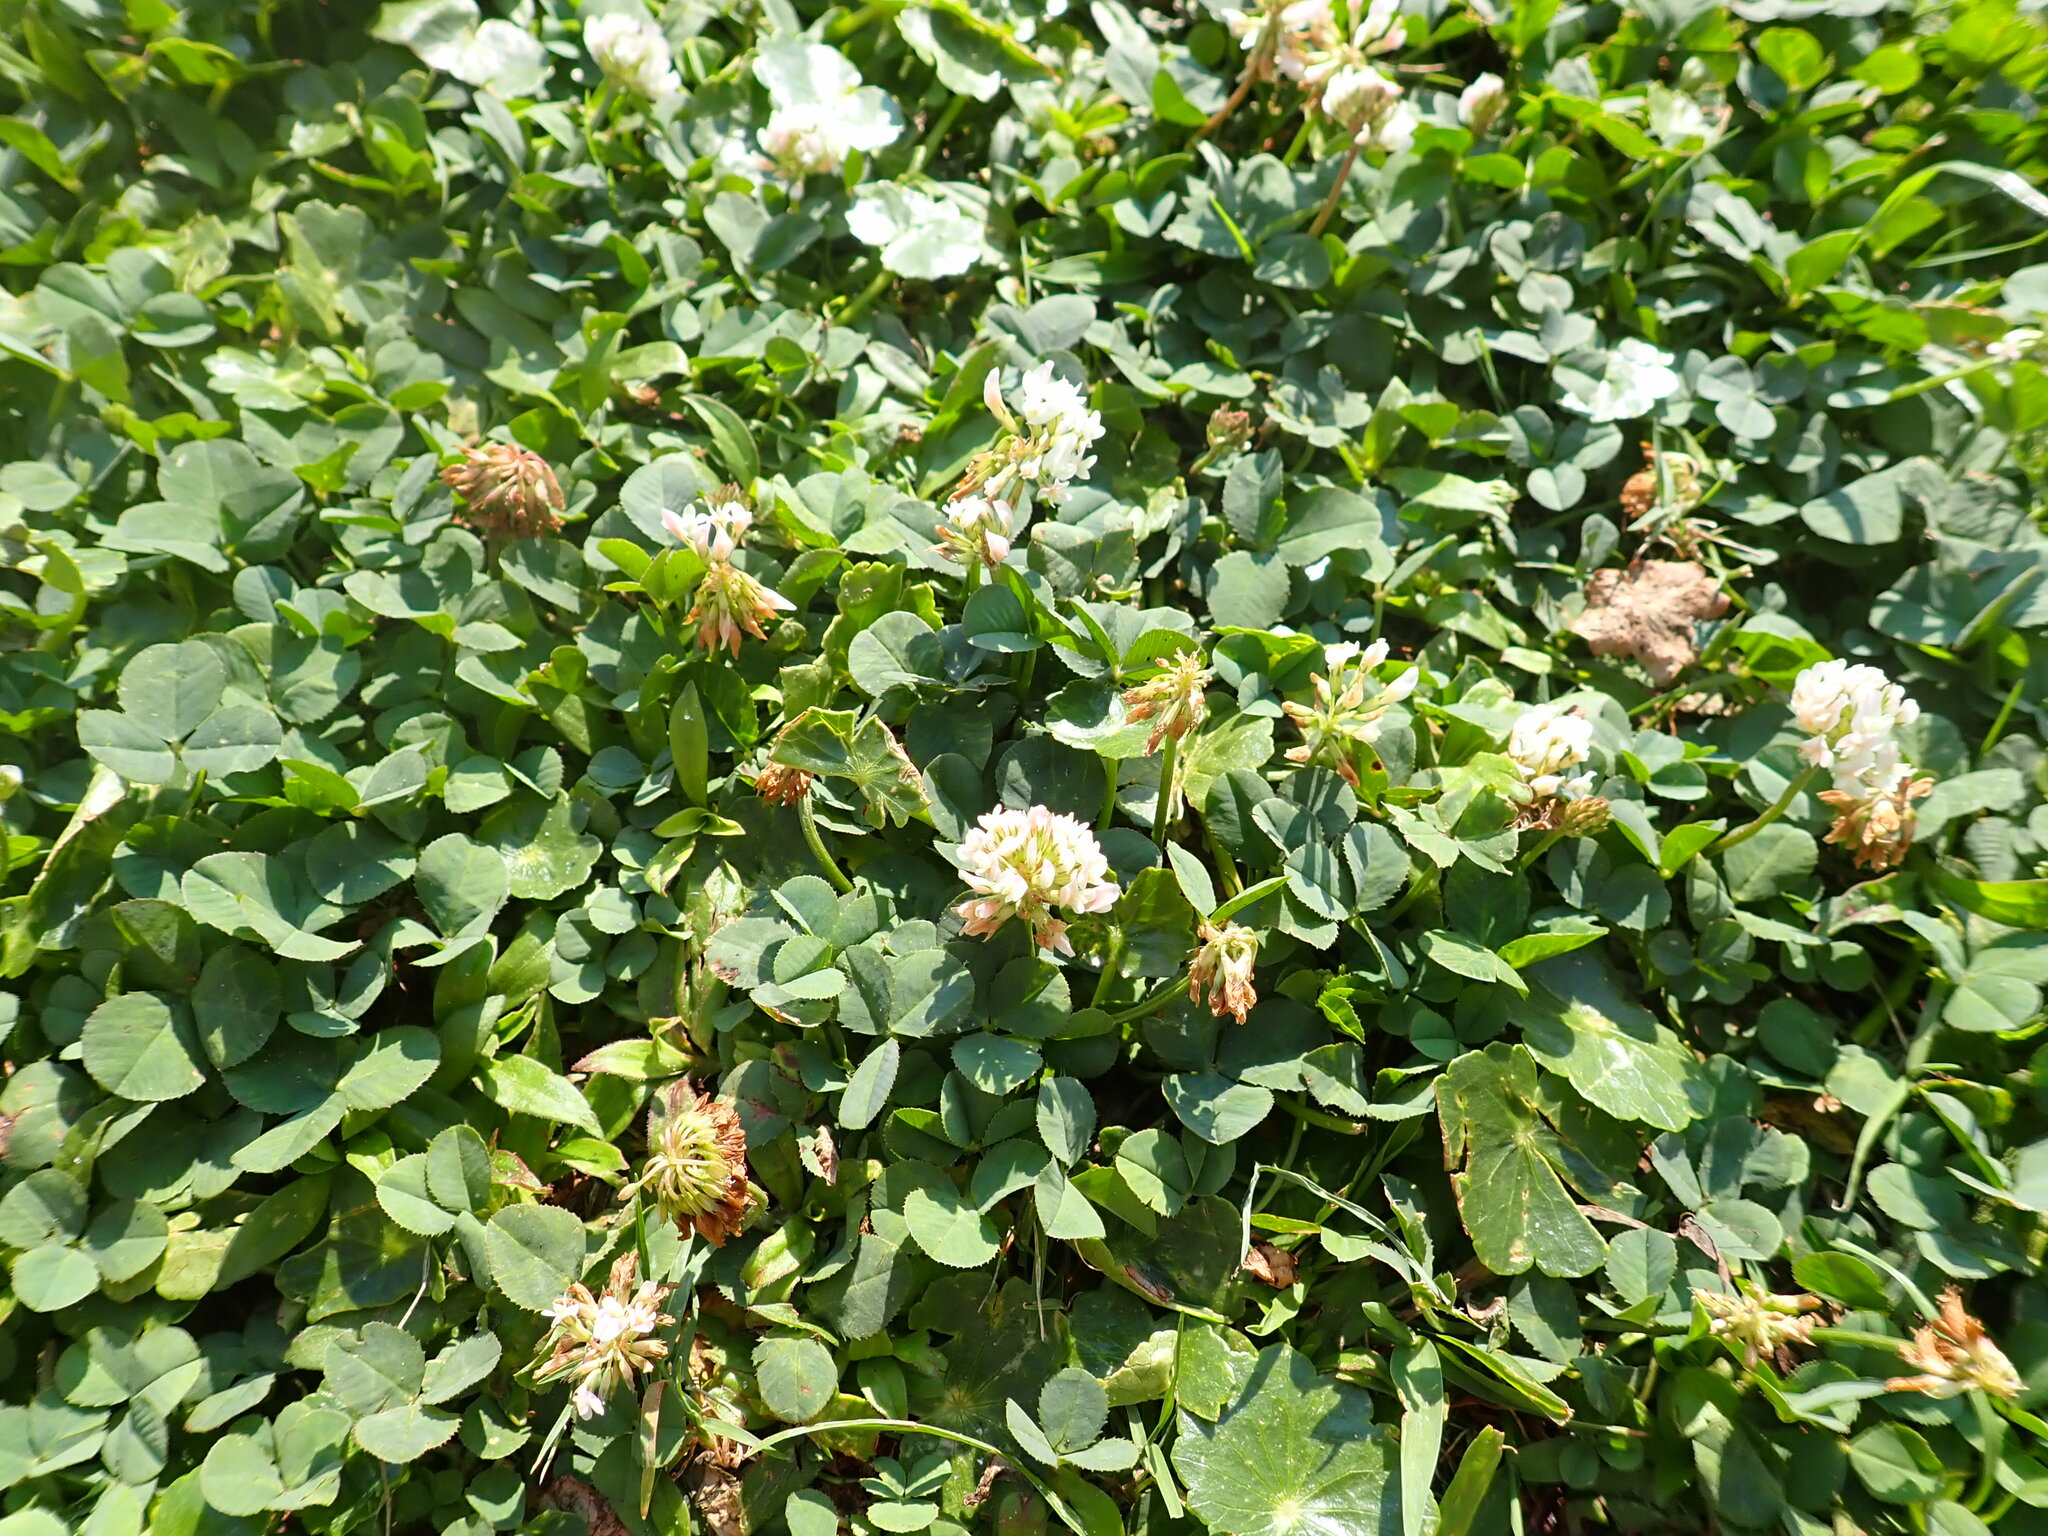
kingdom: Plantae
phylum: Tracheophyta
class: Magnoliopsida
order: Fabales
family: Fabaceae
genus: Trifolium
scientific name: Trifolium repens
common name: White clover
